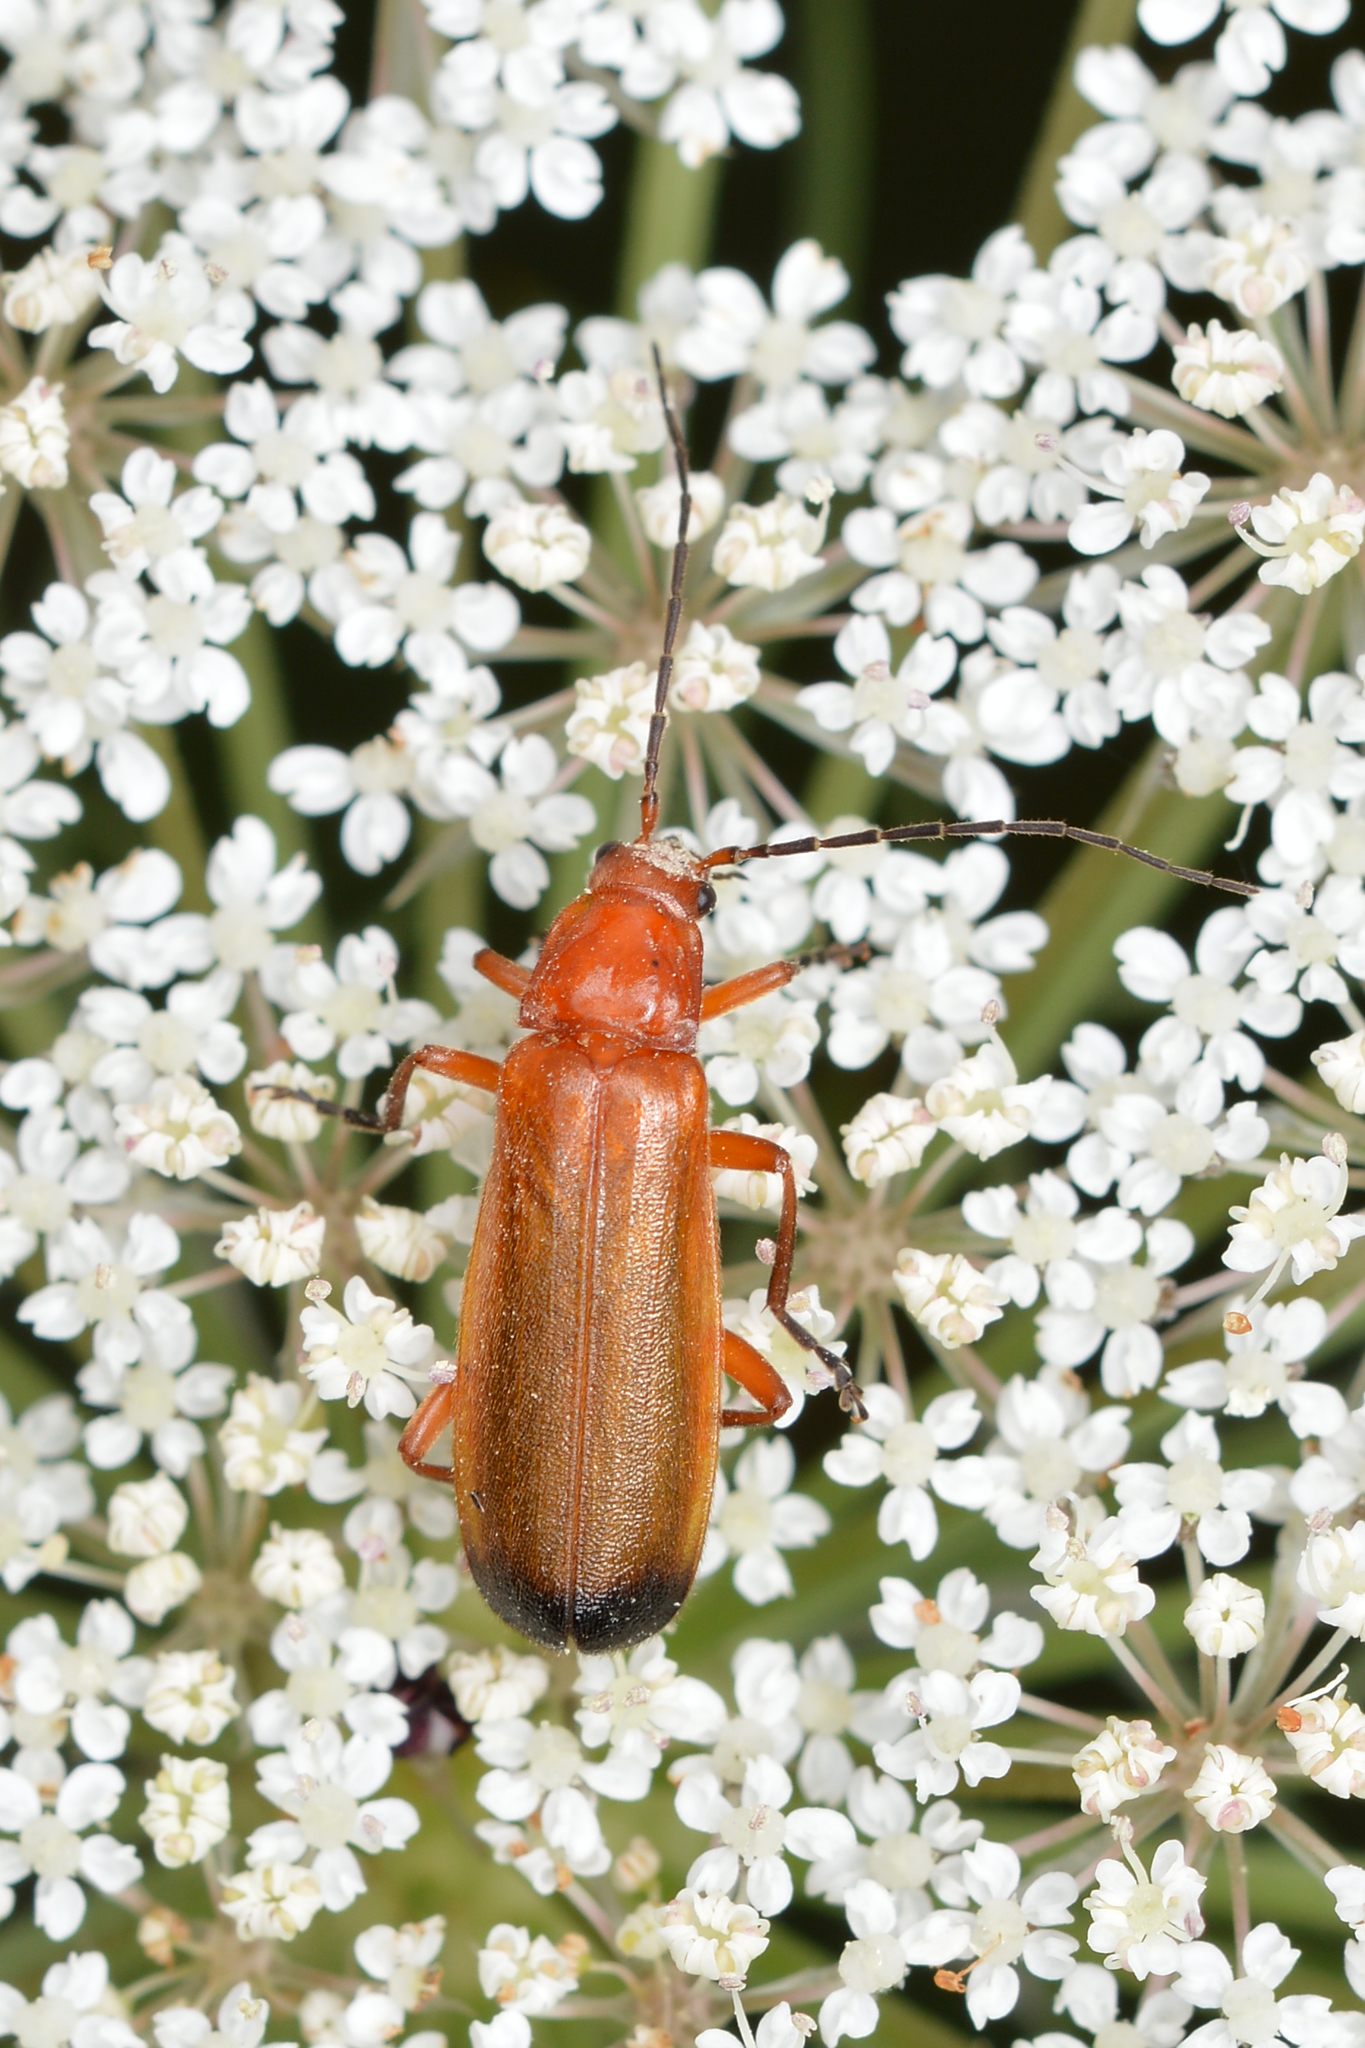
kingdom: Animalia
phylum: Arthropoda
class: Insecta
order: Coleoptera
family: Cantharidae
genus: Rhagonycha
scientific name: Rhagonycha fulva
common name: Common red soldier beetle
